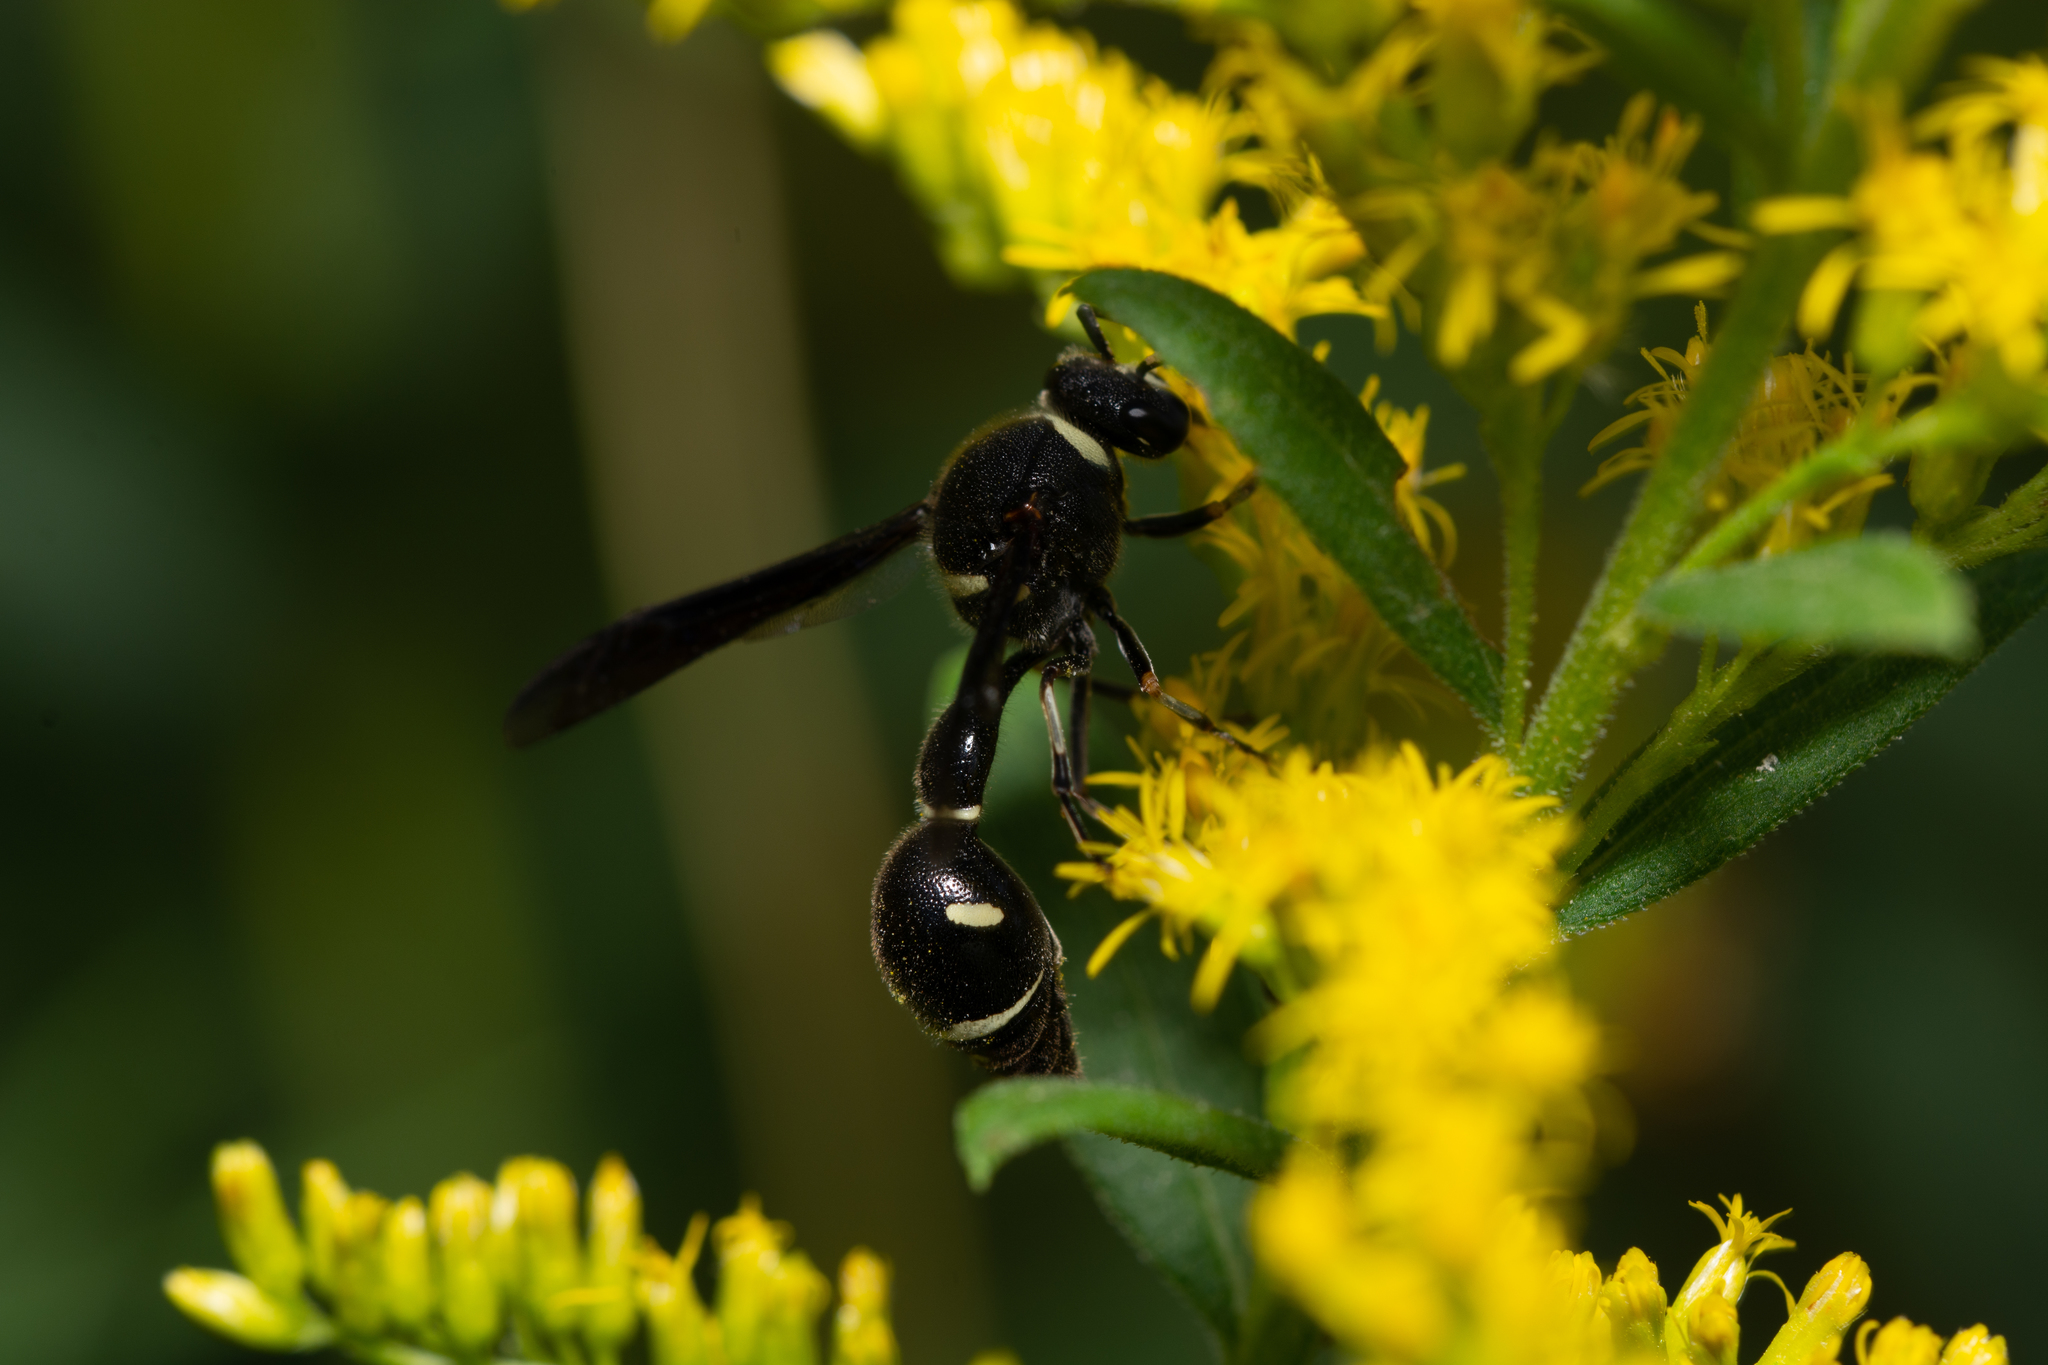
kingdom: Animalia
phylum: Arthropoda
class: Insecta
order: Hymenoptera
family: Vespidae
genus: Eumenes
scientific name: Eumenes fraternus
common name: Fraternal potter wasp
